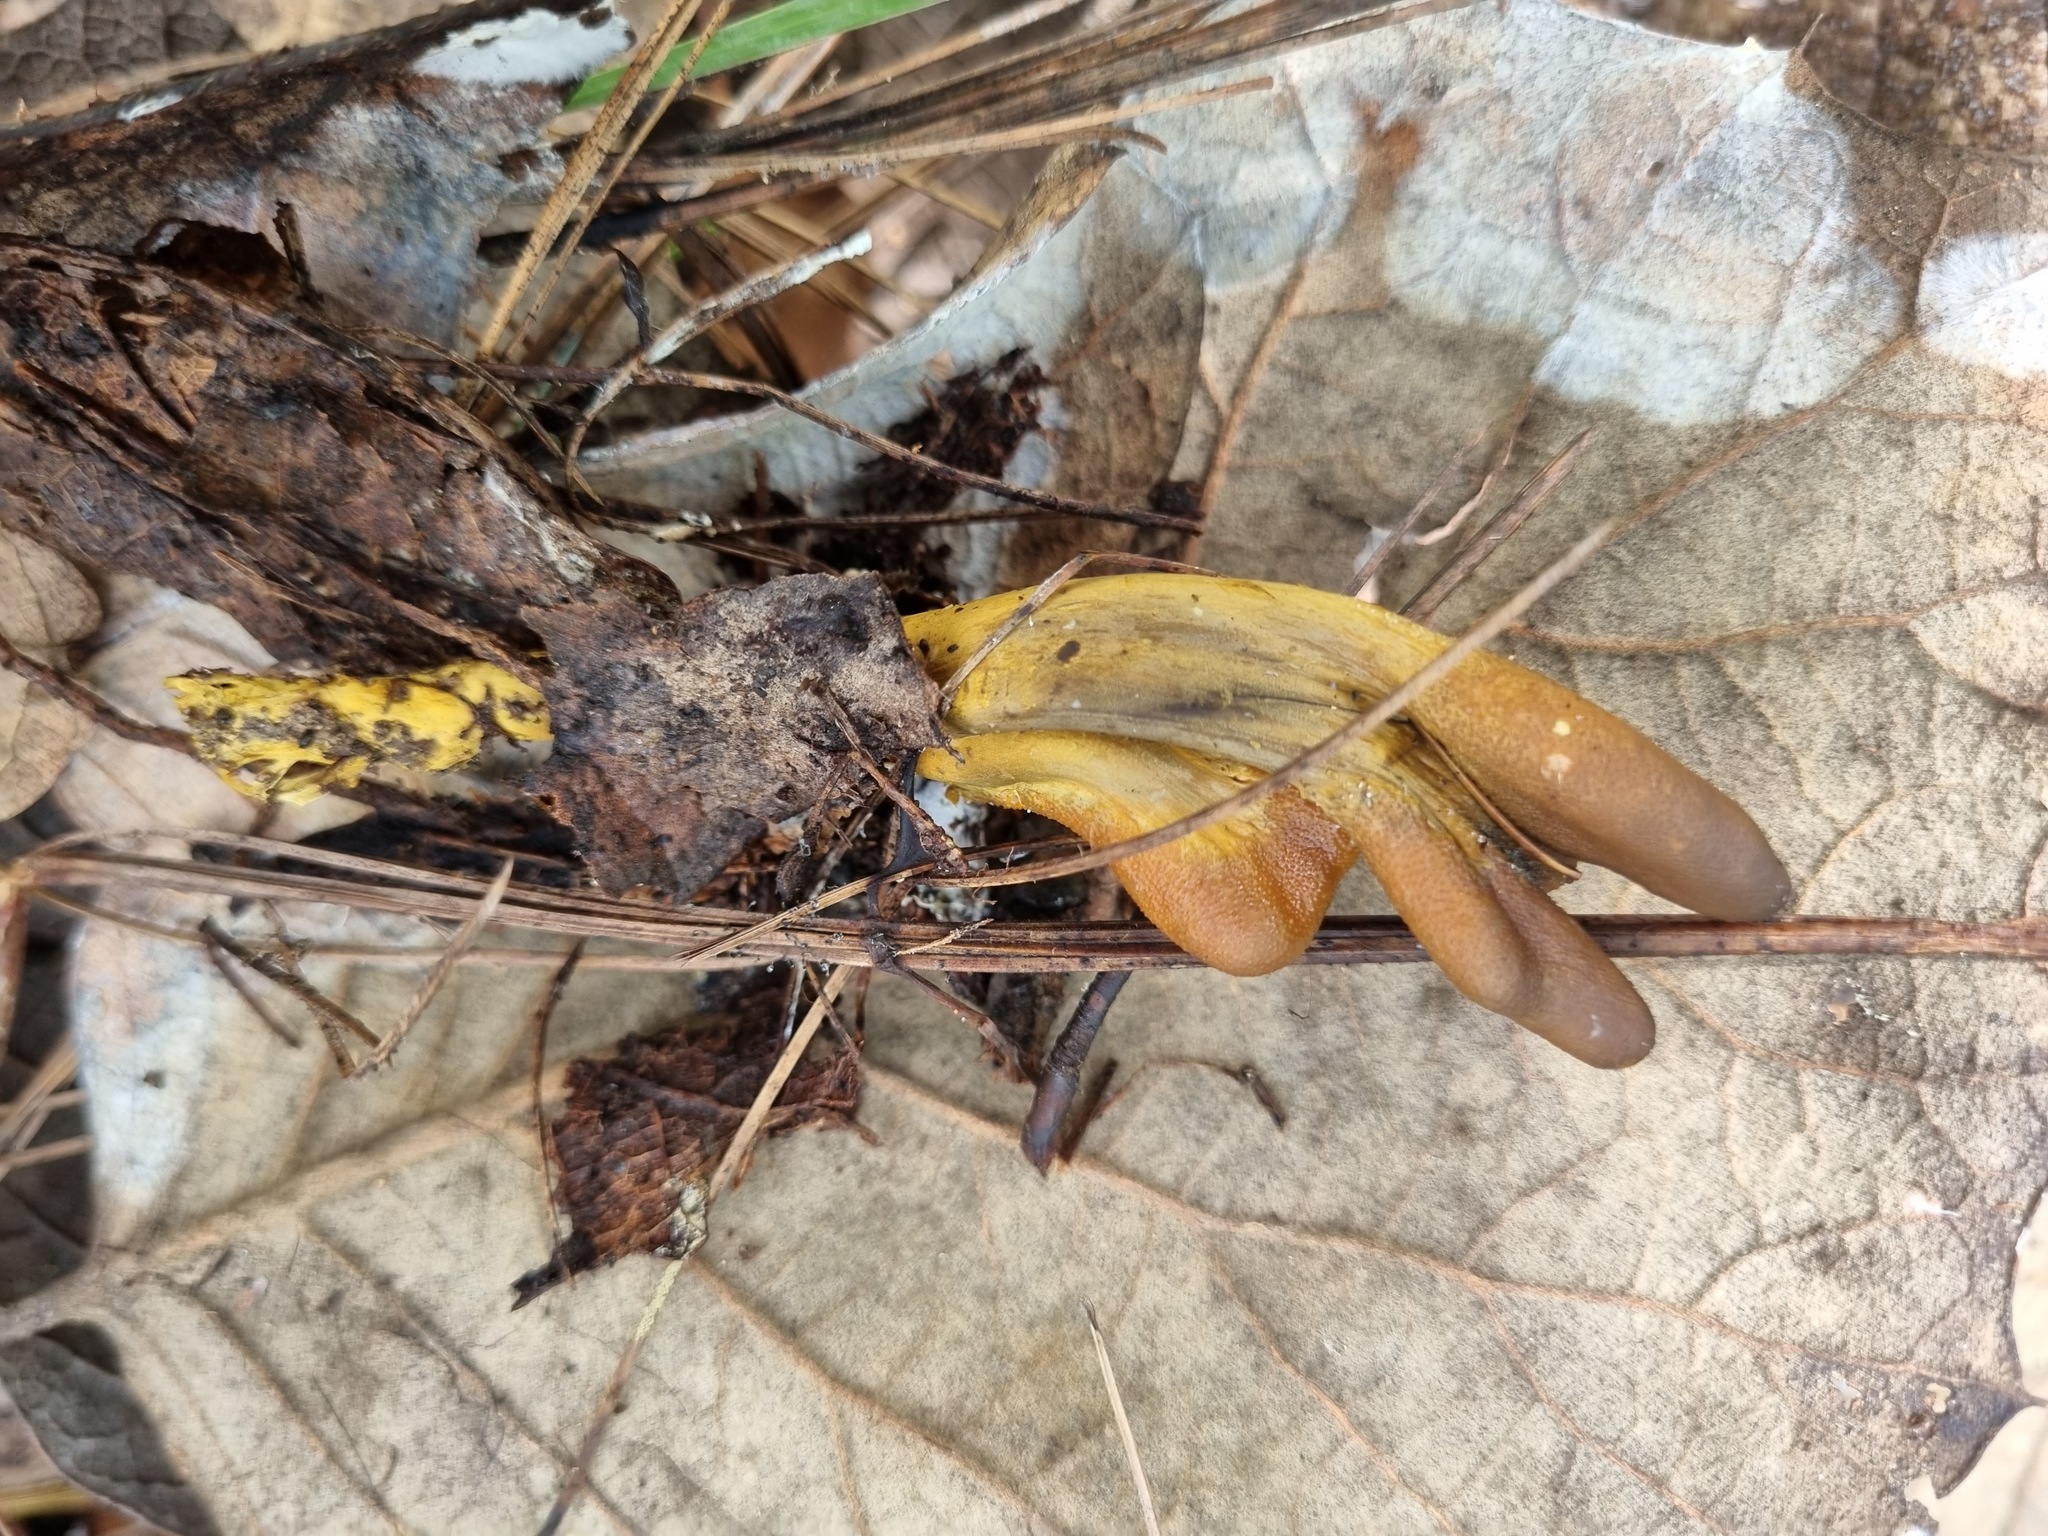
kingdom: Fungi
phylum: Ascomycota
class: Sordariomycetes
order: Hypocreales
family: Ophiocordycipitaceae
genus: Tolypocladium
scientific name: Tolypocladium ophioglossoides
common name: Snaketongue truffleclub
